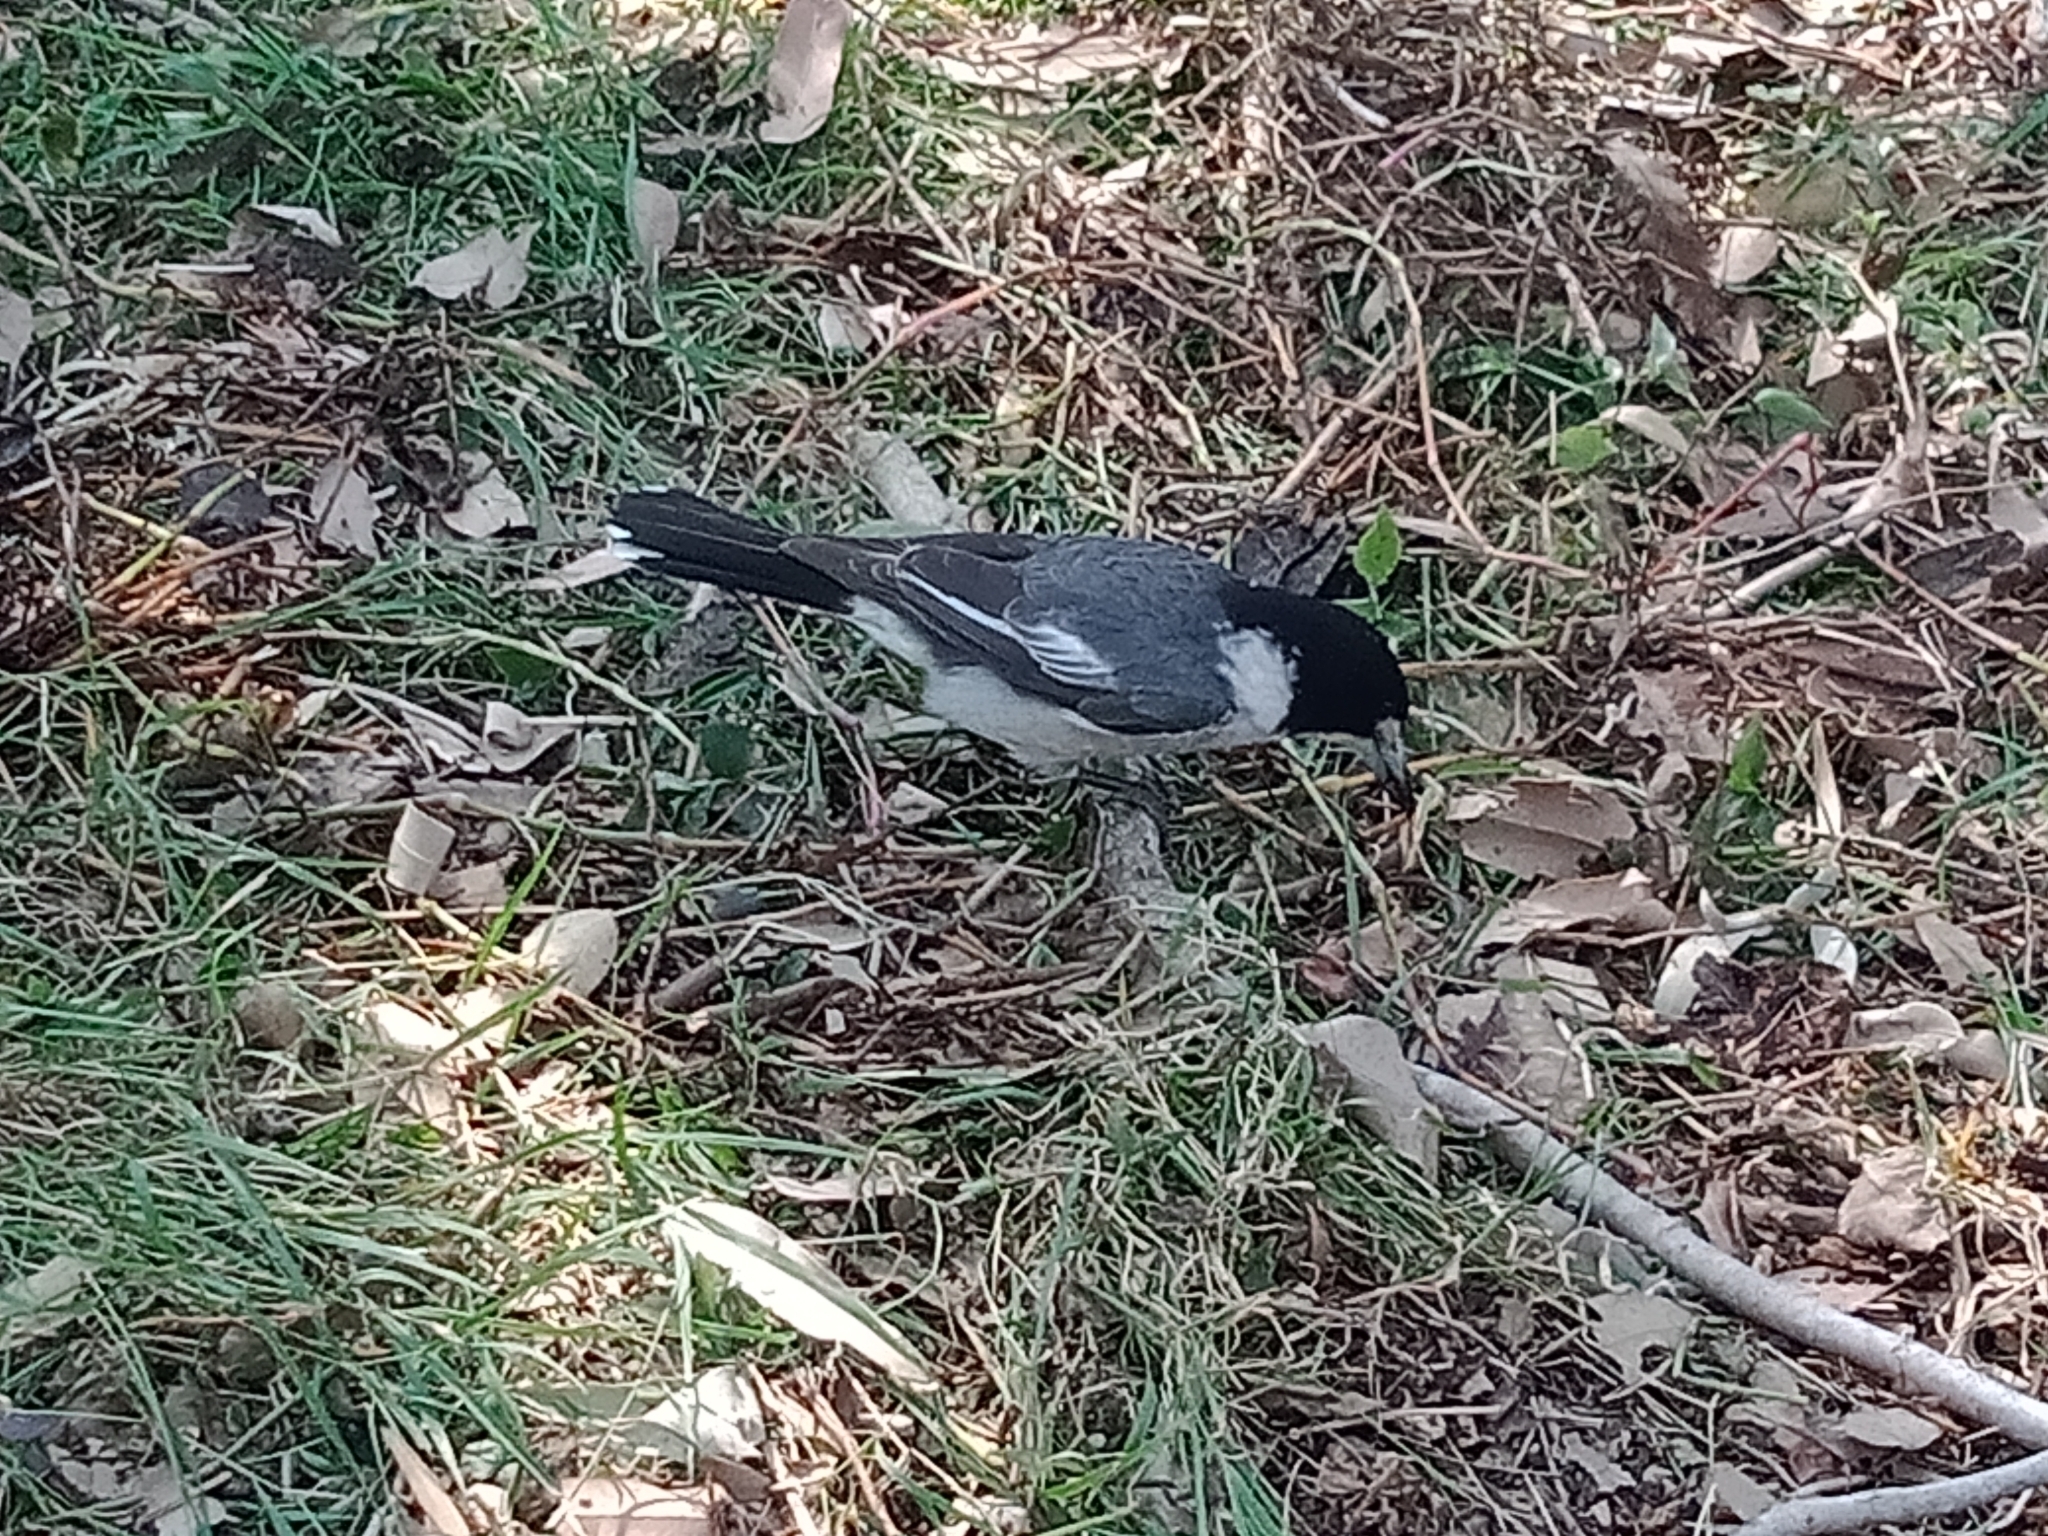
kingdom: Animalia
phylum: Chordata
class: Aves
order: Passeriformes
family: Cracticidae
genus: Cracticus
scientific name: Cracticus torquatus
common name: Grey butcherbird
